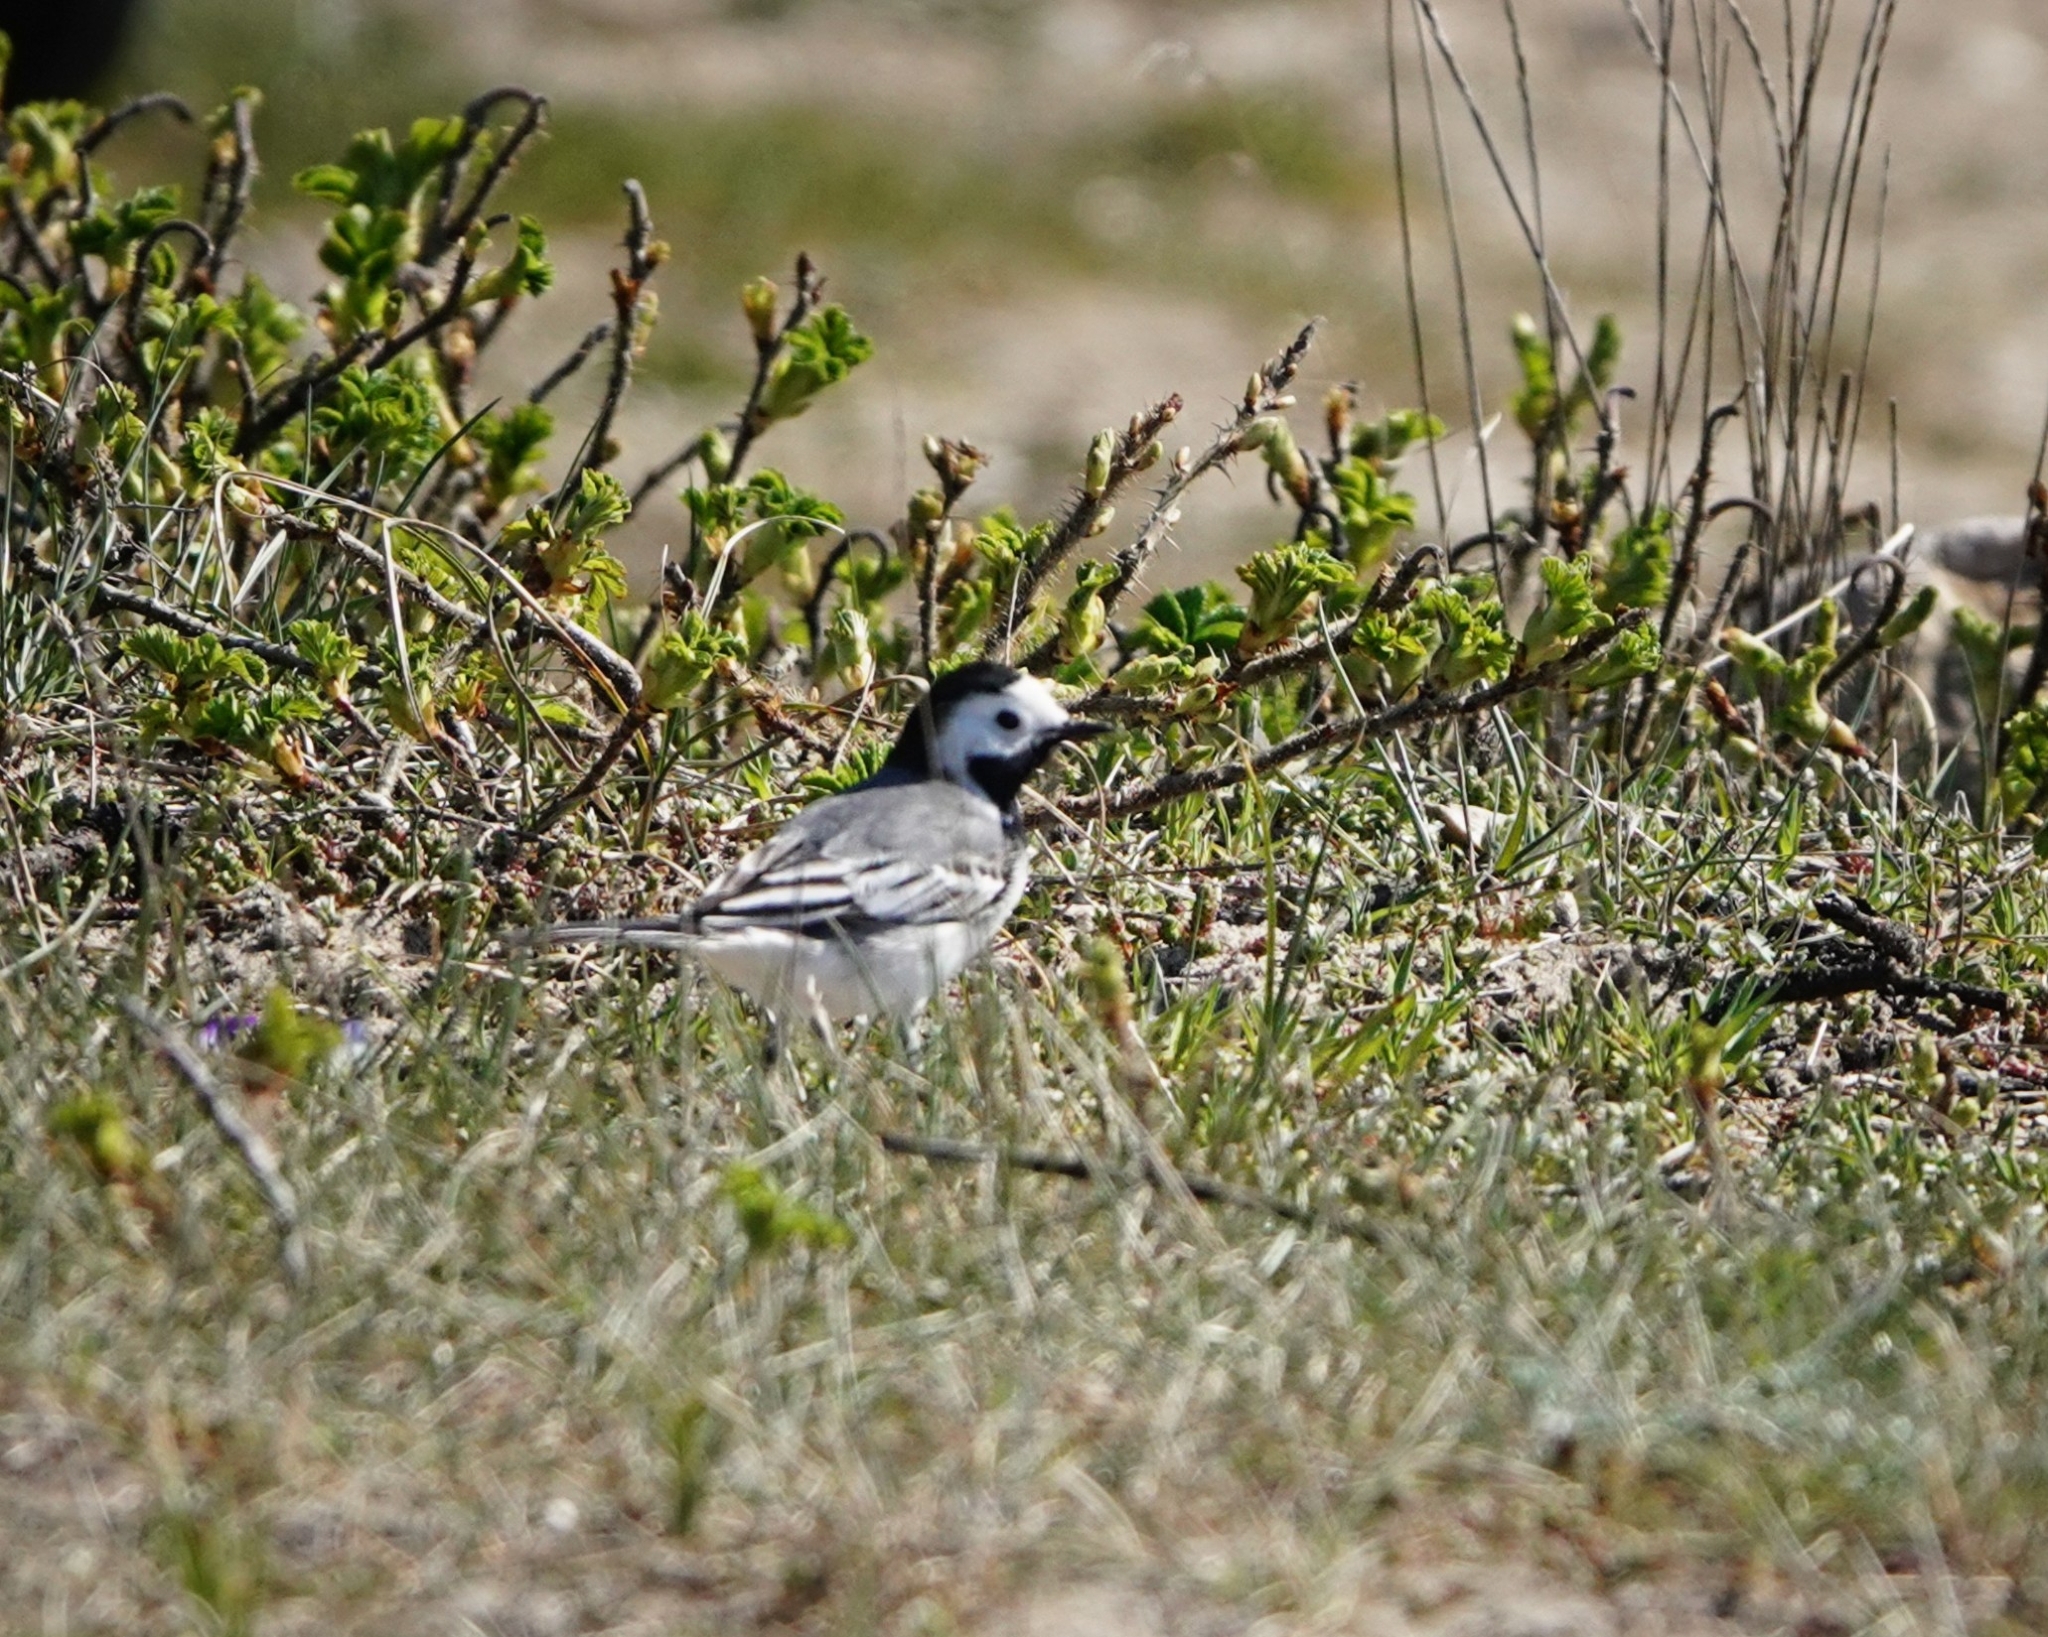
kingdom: Animalia
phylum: Chordata
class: Aves
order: Passeriformes
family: Motacillidae
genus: Motacilla
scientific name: Motacilla alba
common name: White wagtail
